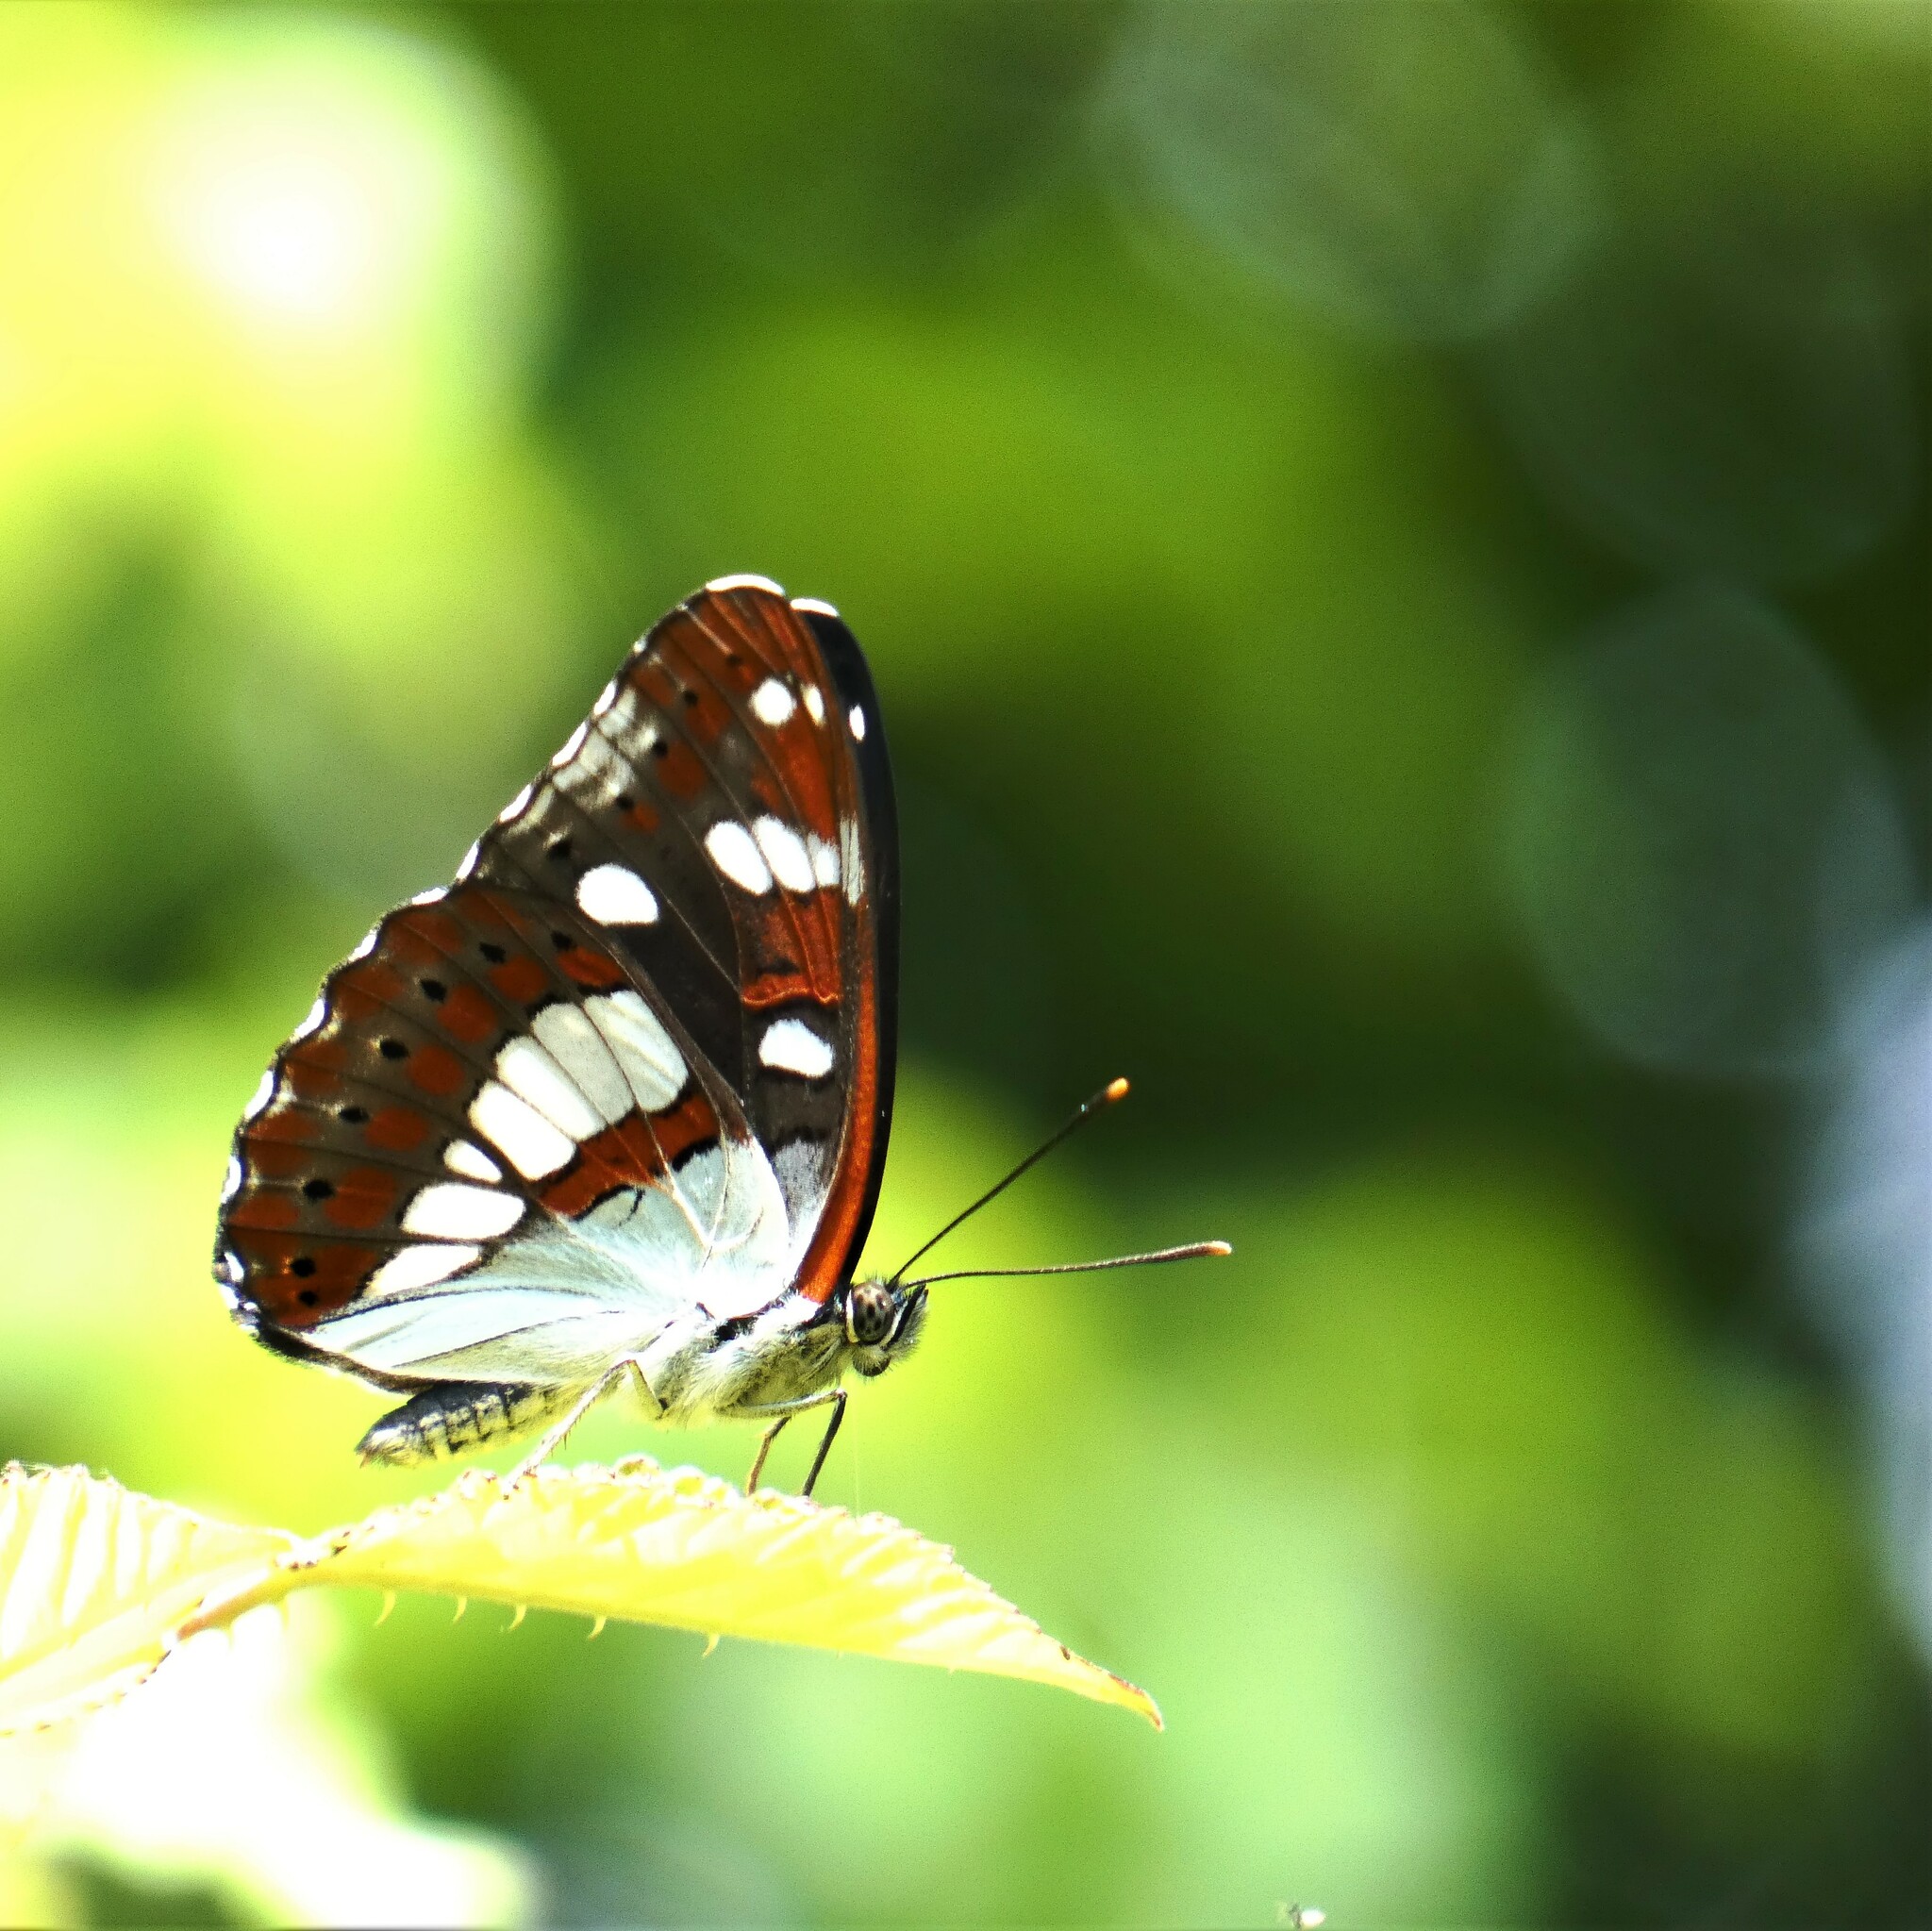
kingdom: Animalia
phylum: Arthropoda
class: Insecta
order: Lepidoptera
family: Nymphalidae
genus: Limenitis
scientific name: Limenitis reducta
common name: Southern white admiral
